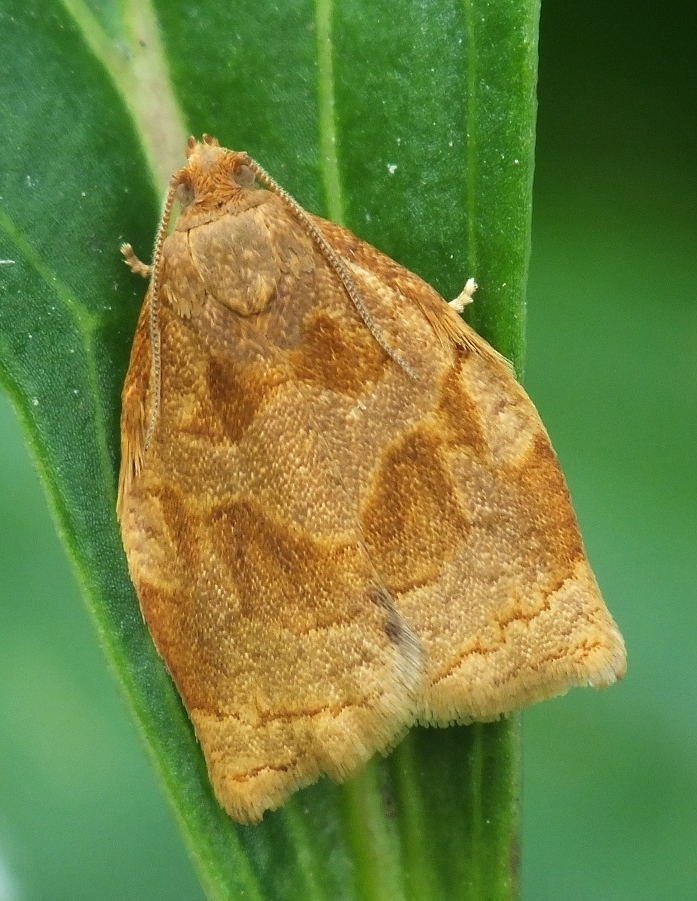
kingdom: Animalia
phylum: Arthropoda
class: Insecta
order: Lepidoptera
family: Tortricidae
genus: Archips
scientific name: Archips rosana
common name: Rose tortrix
